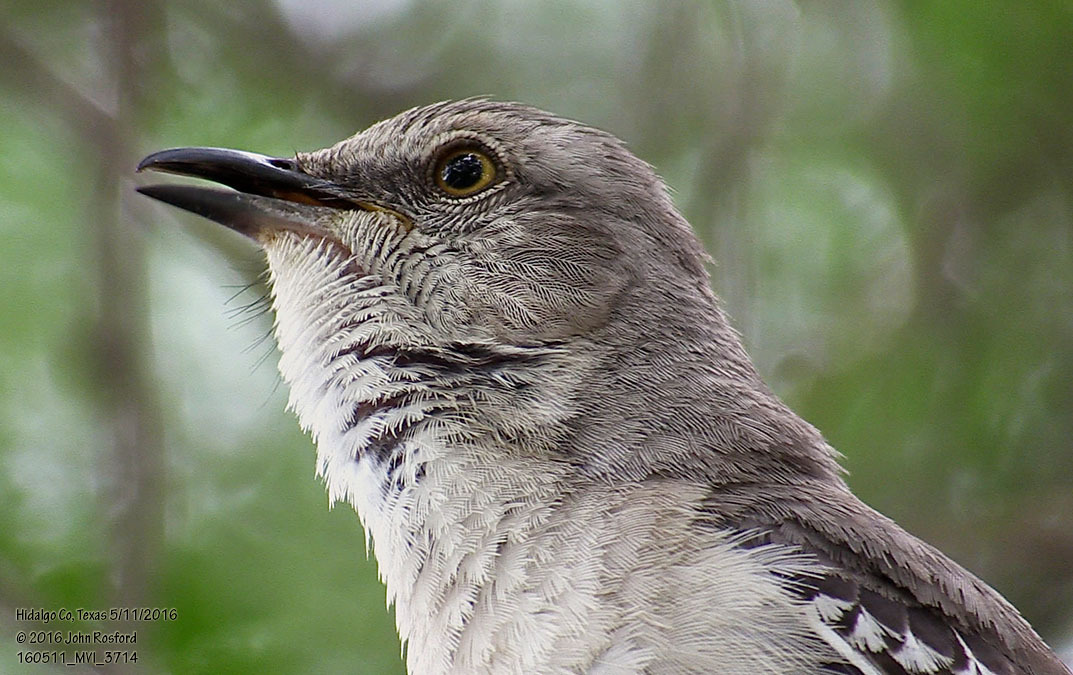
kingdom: Animalia
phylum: Chordata
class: Aves
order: Passeriformes
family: Mimidae
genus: Mimus
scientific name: Mimus polyglottos
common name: Northern mockingbird
